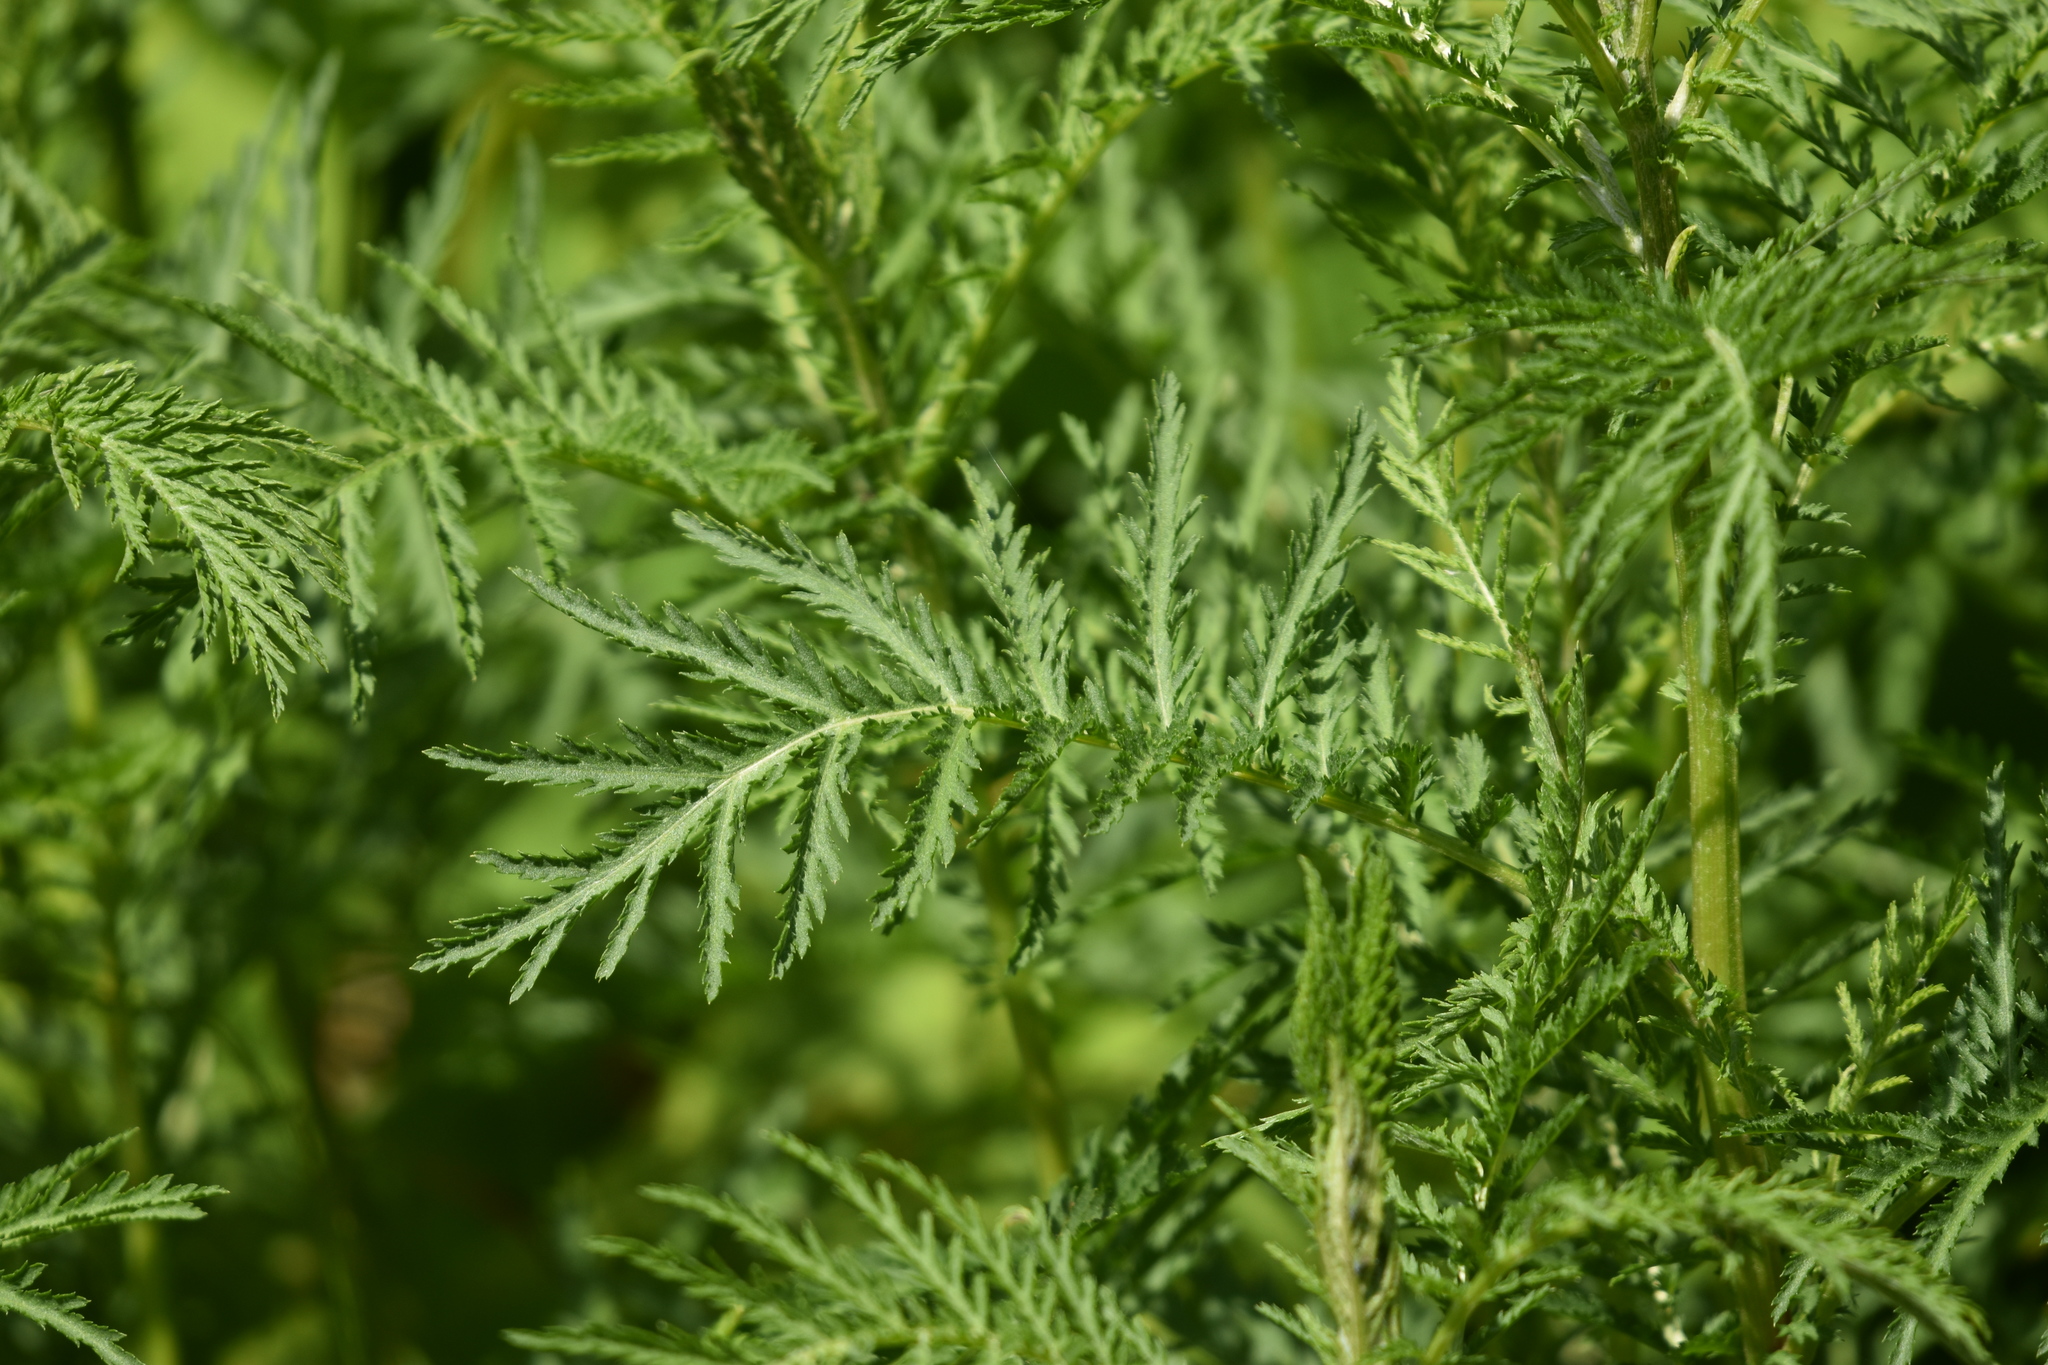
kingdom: Plantae
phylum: Tracheophyta
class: Magnoliopsida
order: Asterales
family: Asteraceae
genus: Tanacetum
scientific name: Tanacetum vulgare
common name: Common tansy
